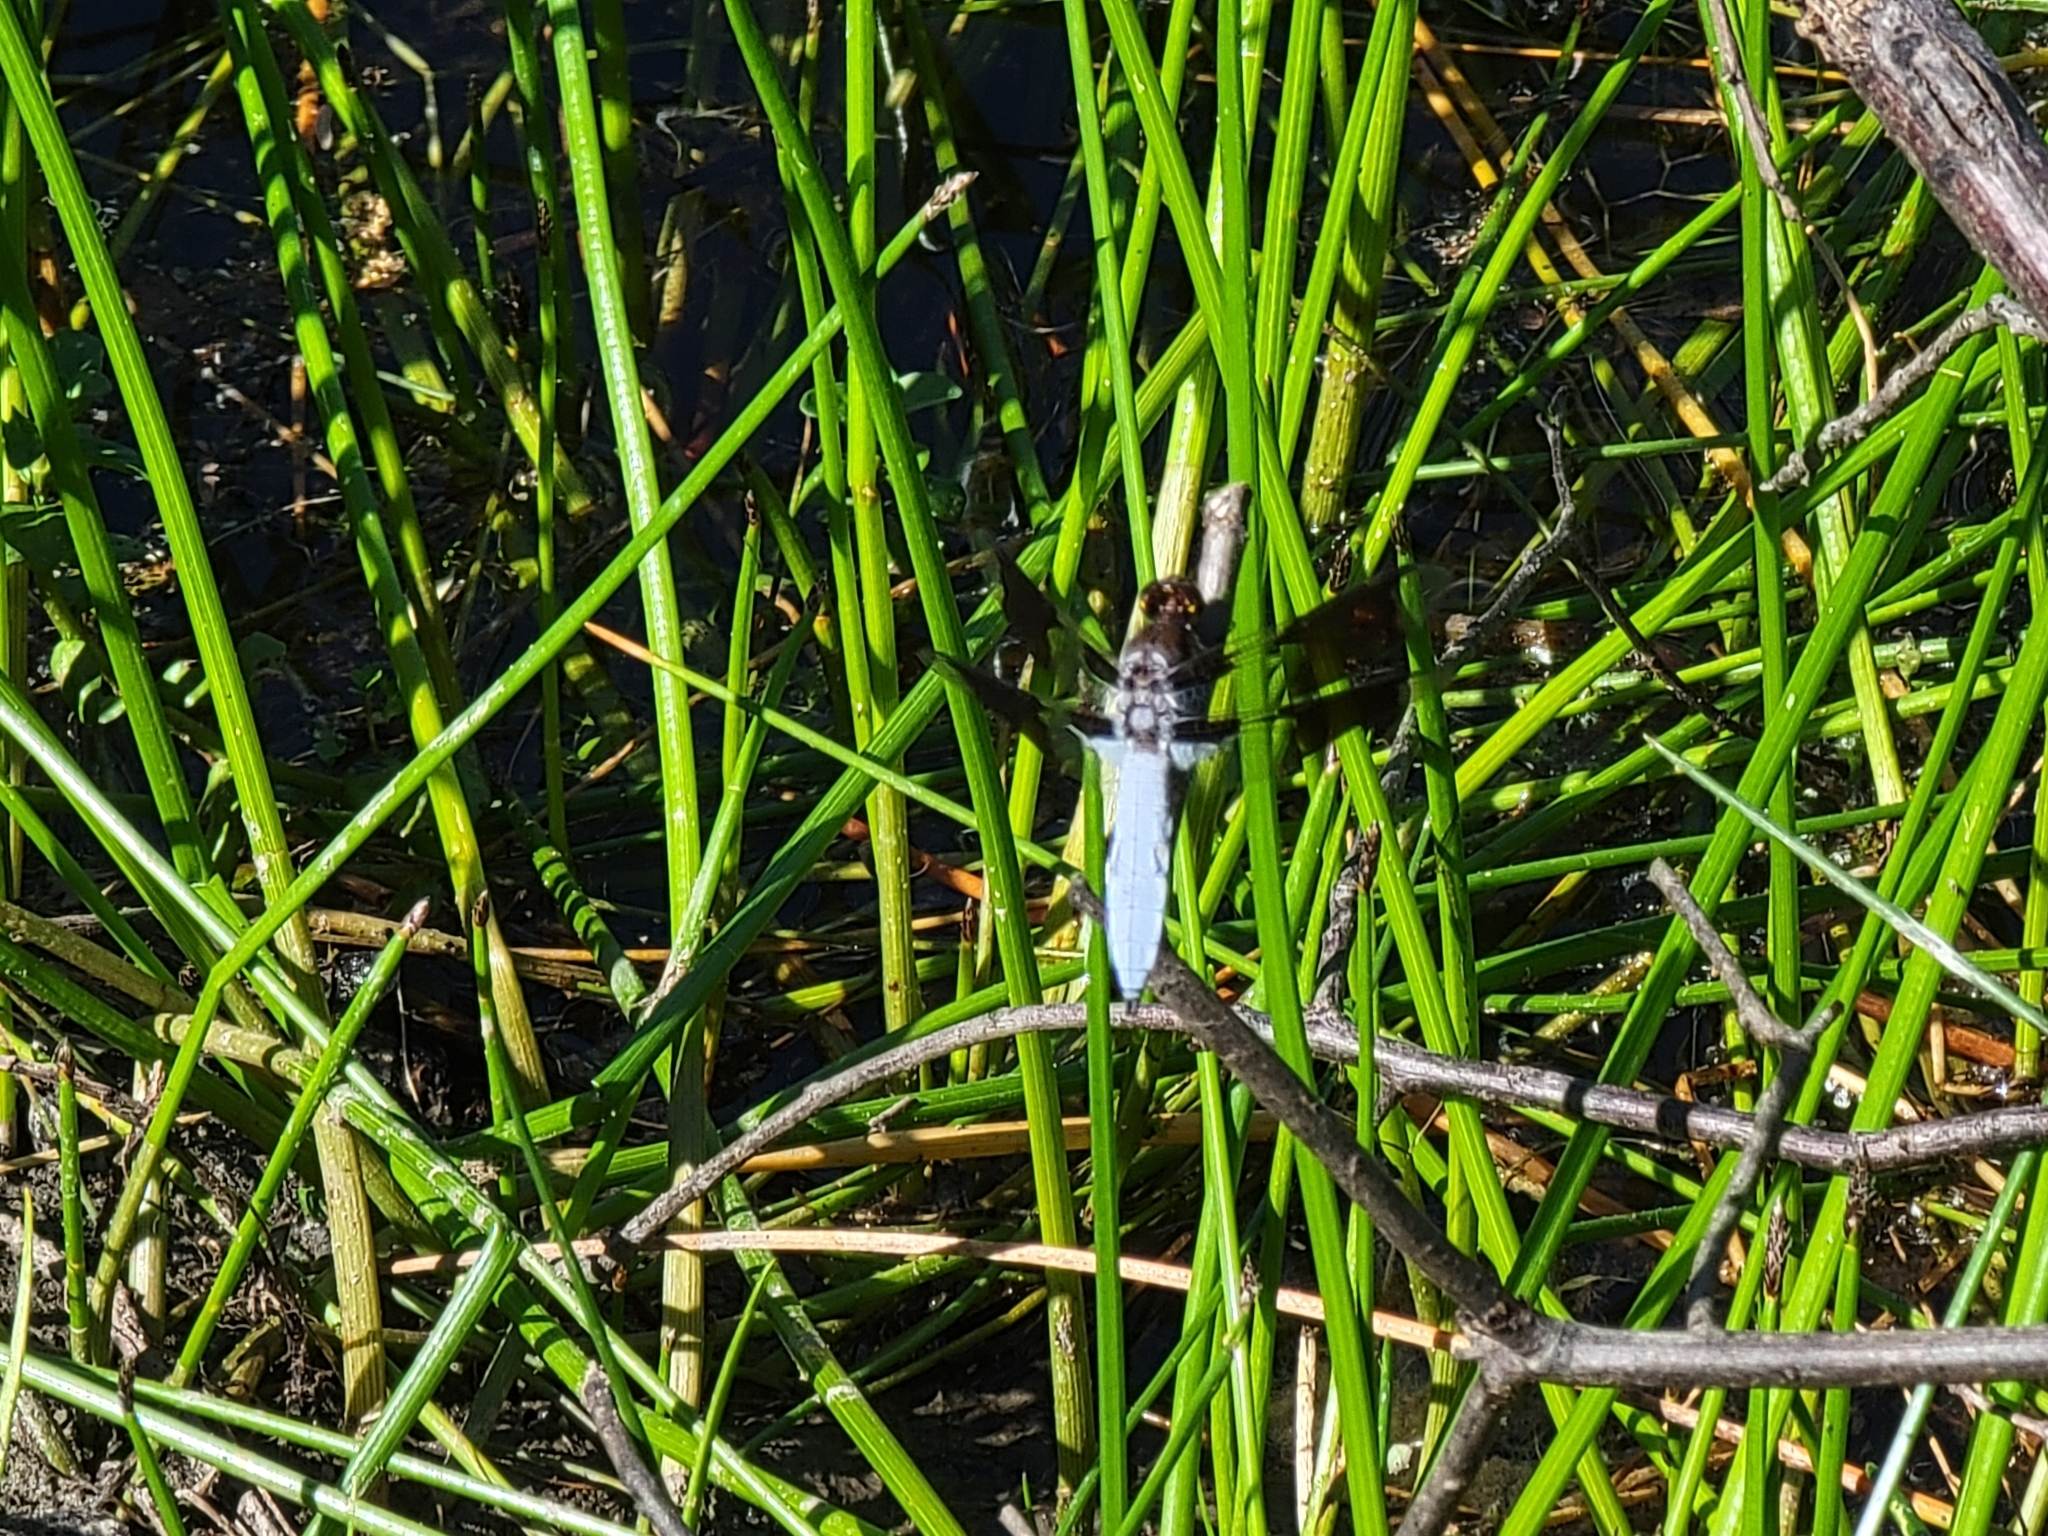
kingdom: Animalia
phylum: Arthropoda
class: Insecta
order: Odonata
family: Libellulidae
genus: Plathemis
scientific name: Plathemis lydia
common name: Common whitetail
